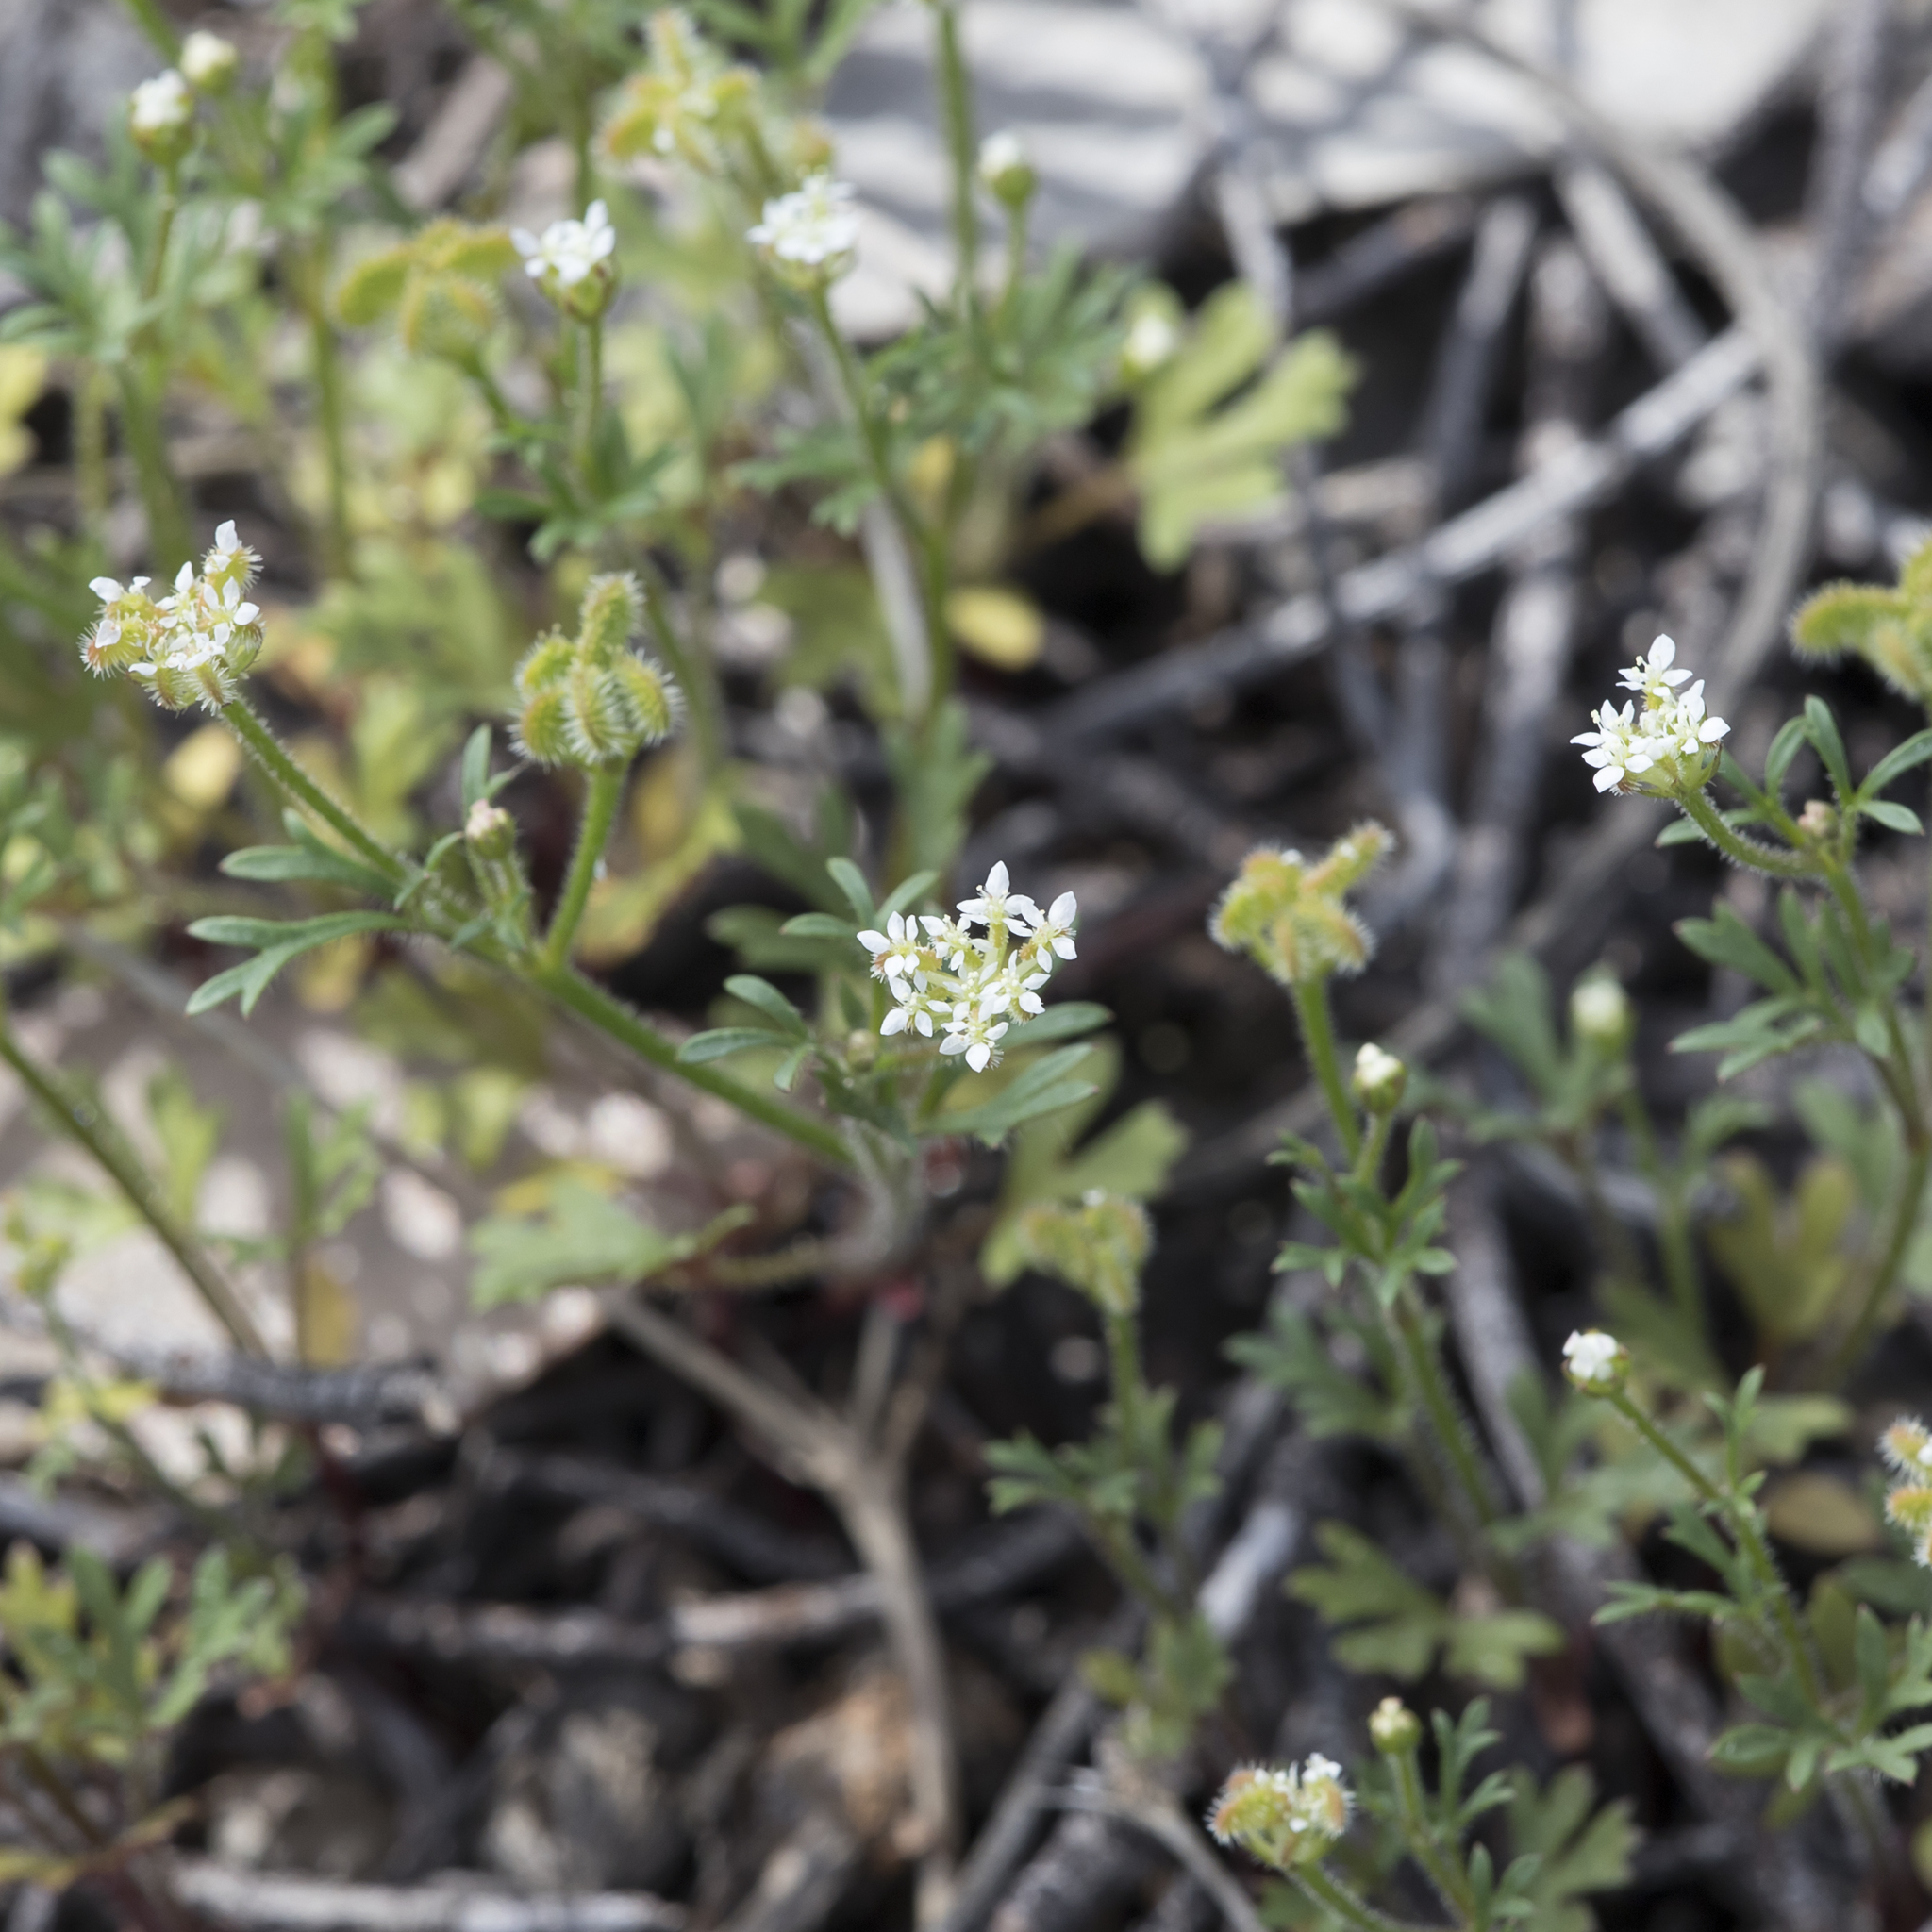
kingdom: Plantae
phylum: Tracheophyta
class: Magnoliopsida
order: Apiales
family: Araliaceae
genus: Trachymene
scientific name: Trachymene pilosa
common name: Dwarf trachymene
